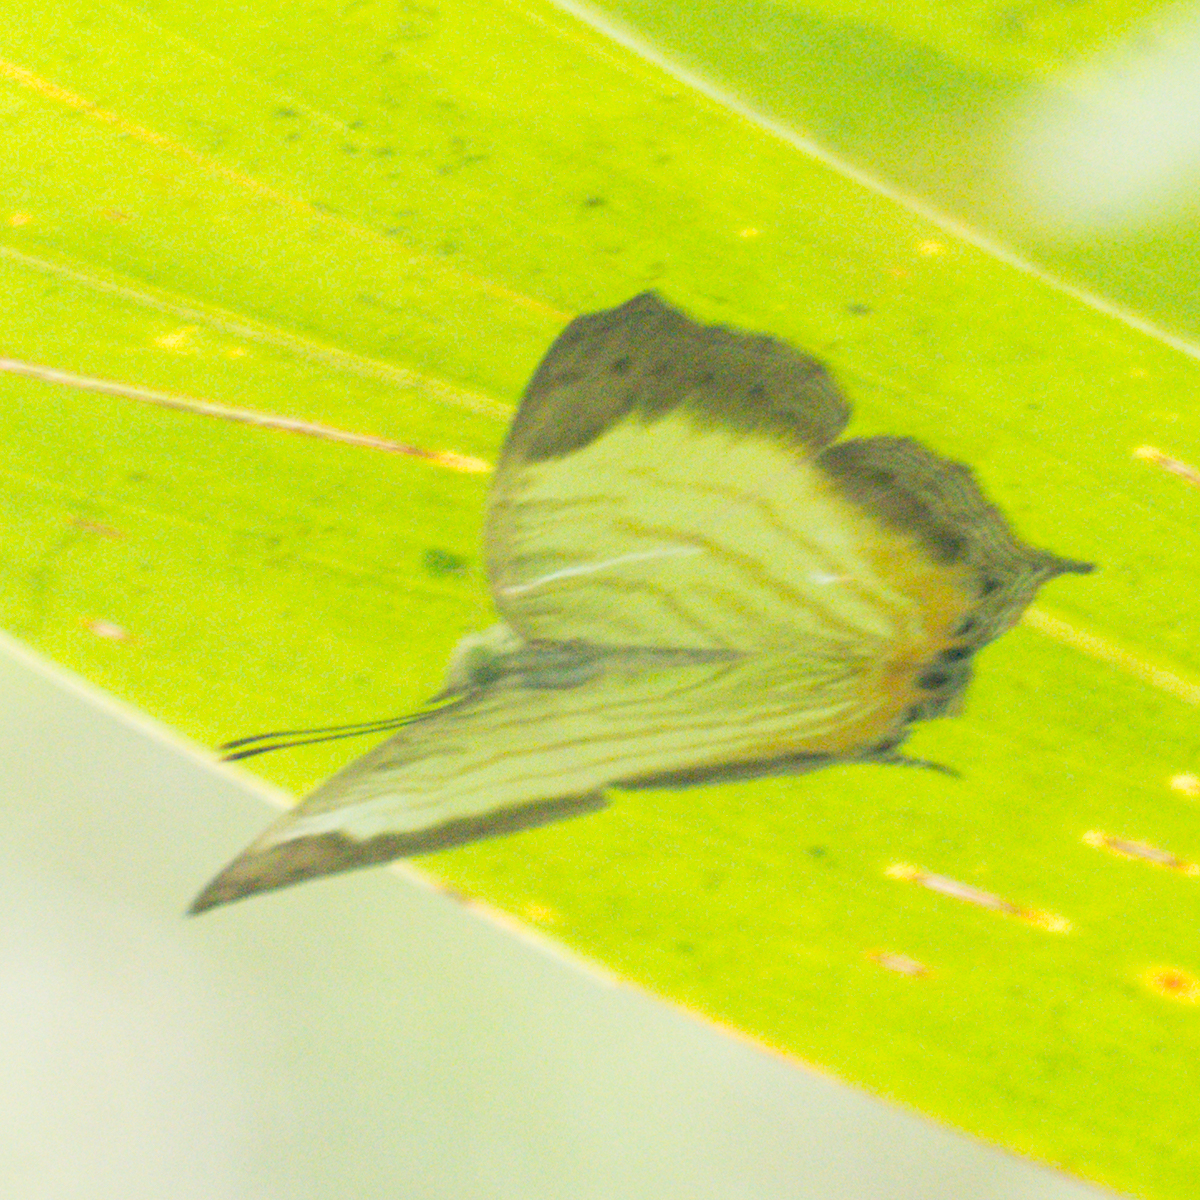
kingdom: Animalia
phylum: Arthropoda
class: Insecta
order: Lepidoptera
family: Nymphalidae
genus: Cyrestis
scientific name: Cyrestis themire
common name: Little mapwing
